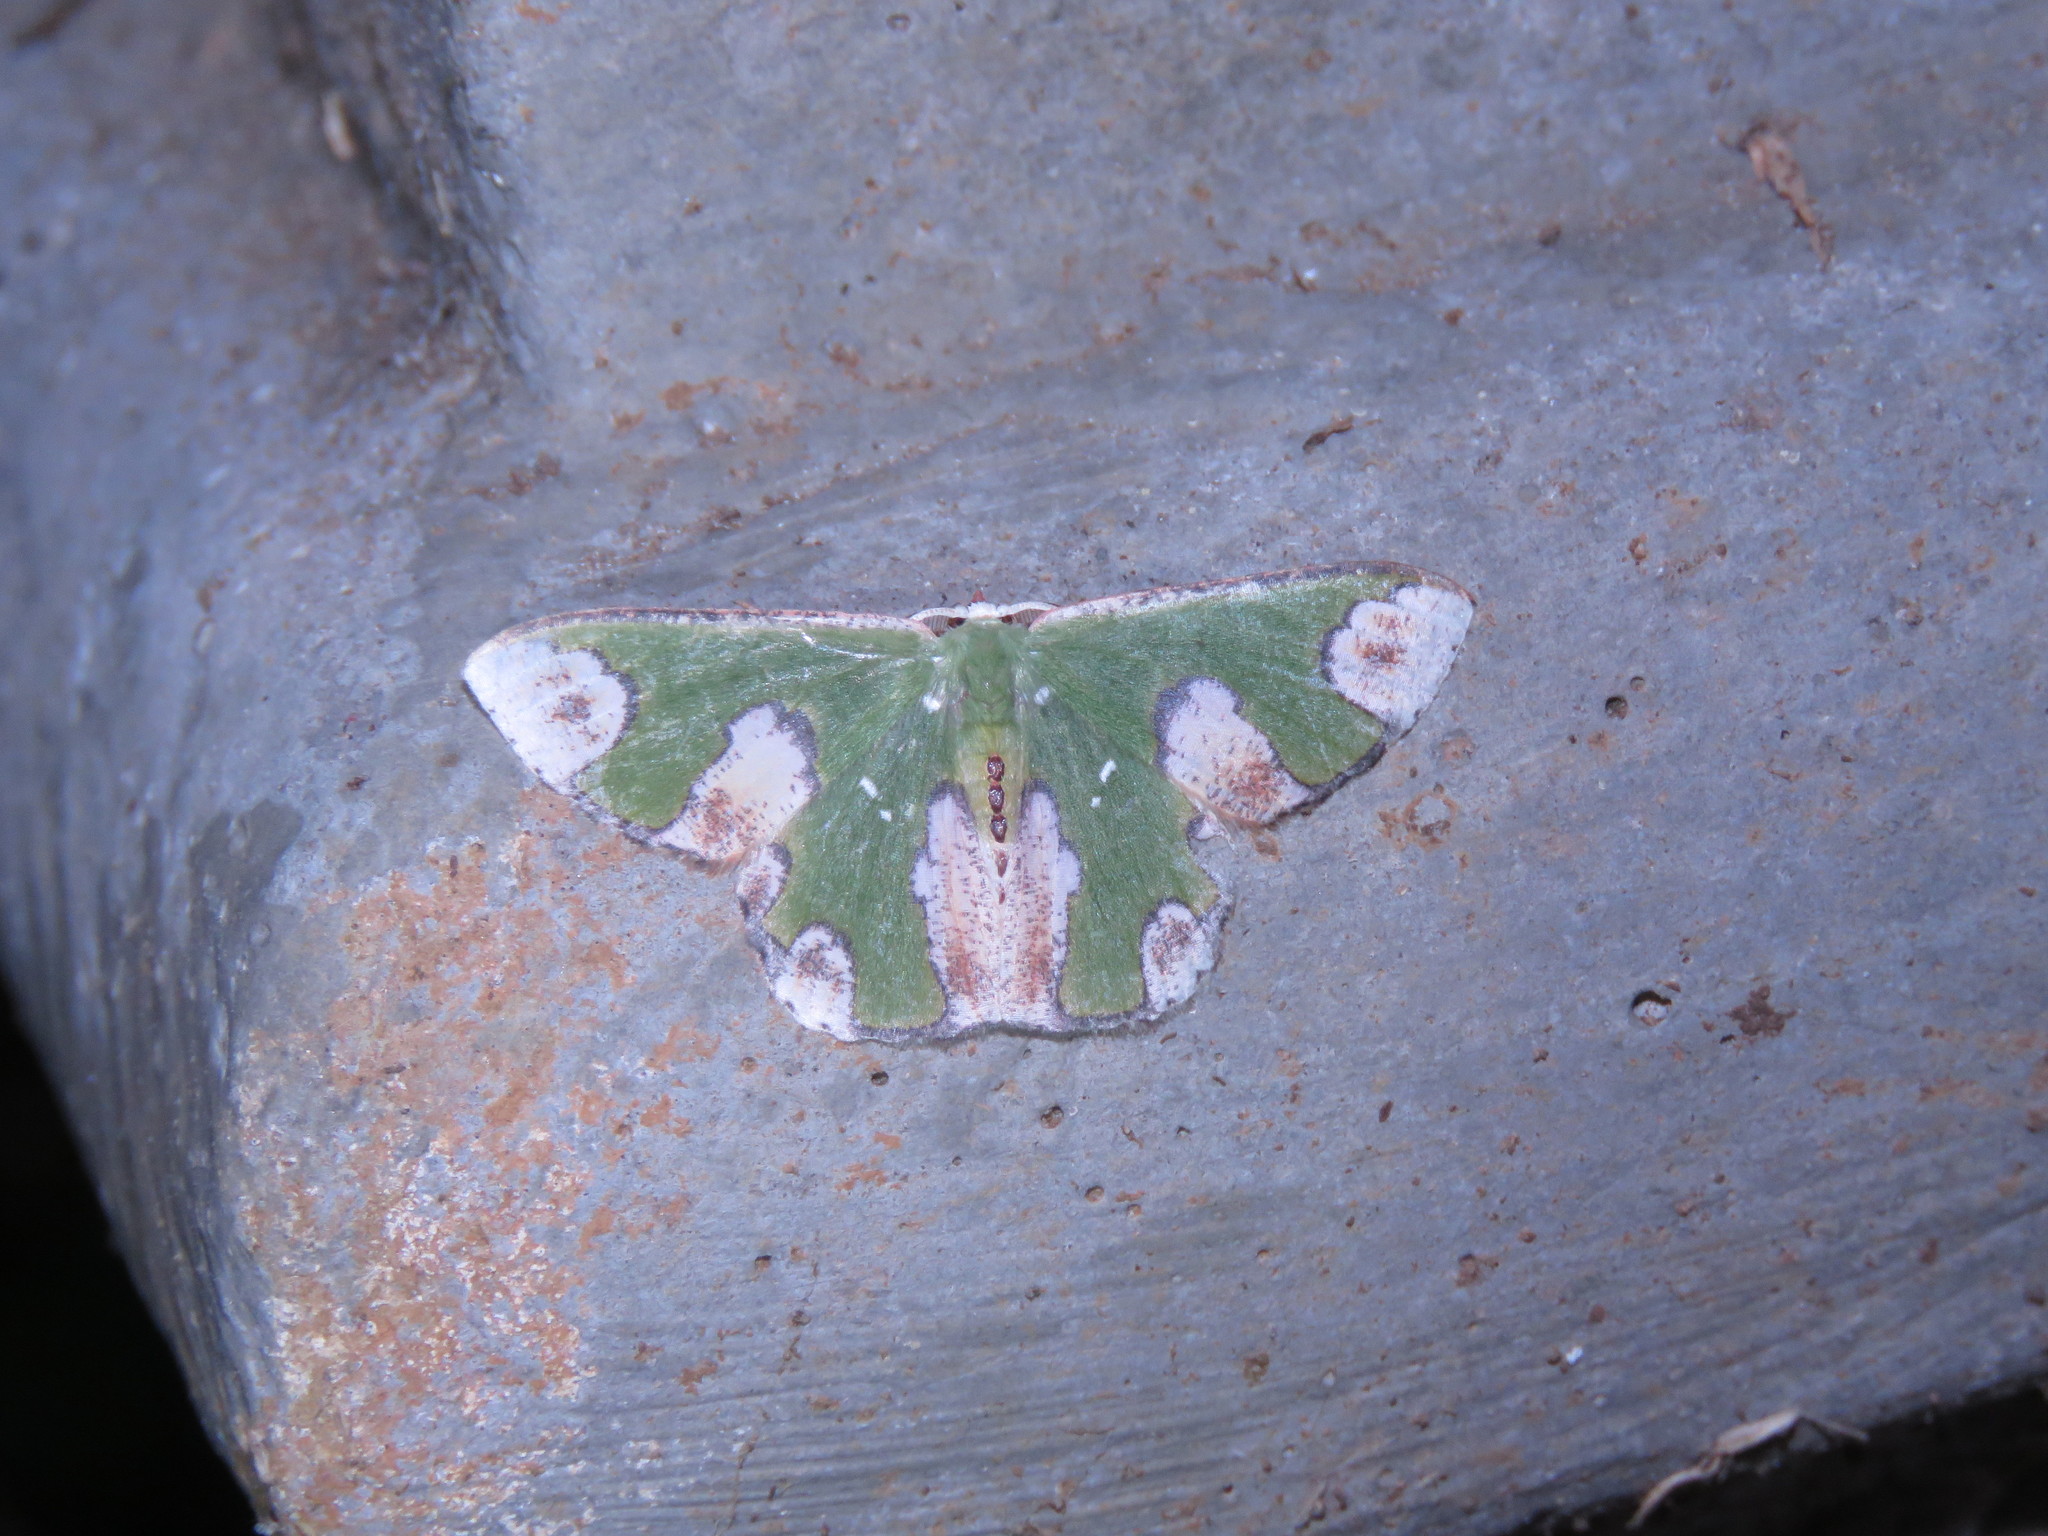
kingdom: Animalia
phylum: Arthropoda
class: Insecta
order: Lepidoptera
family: Geometridae
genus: Oospila
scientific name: Oospila ruptimacula
